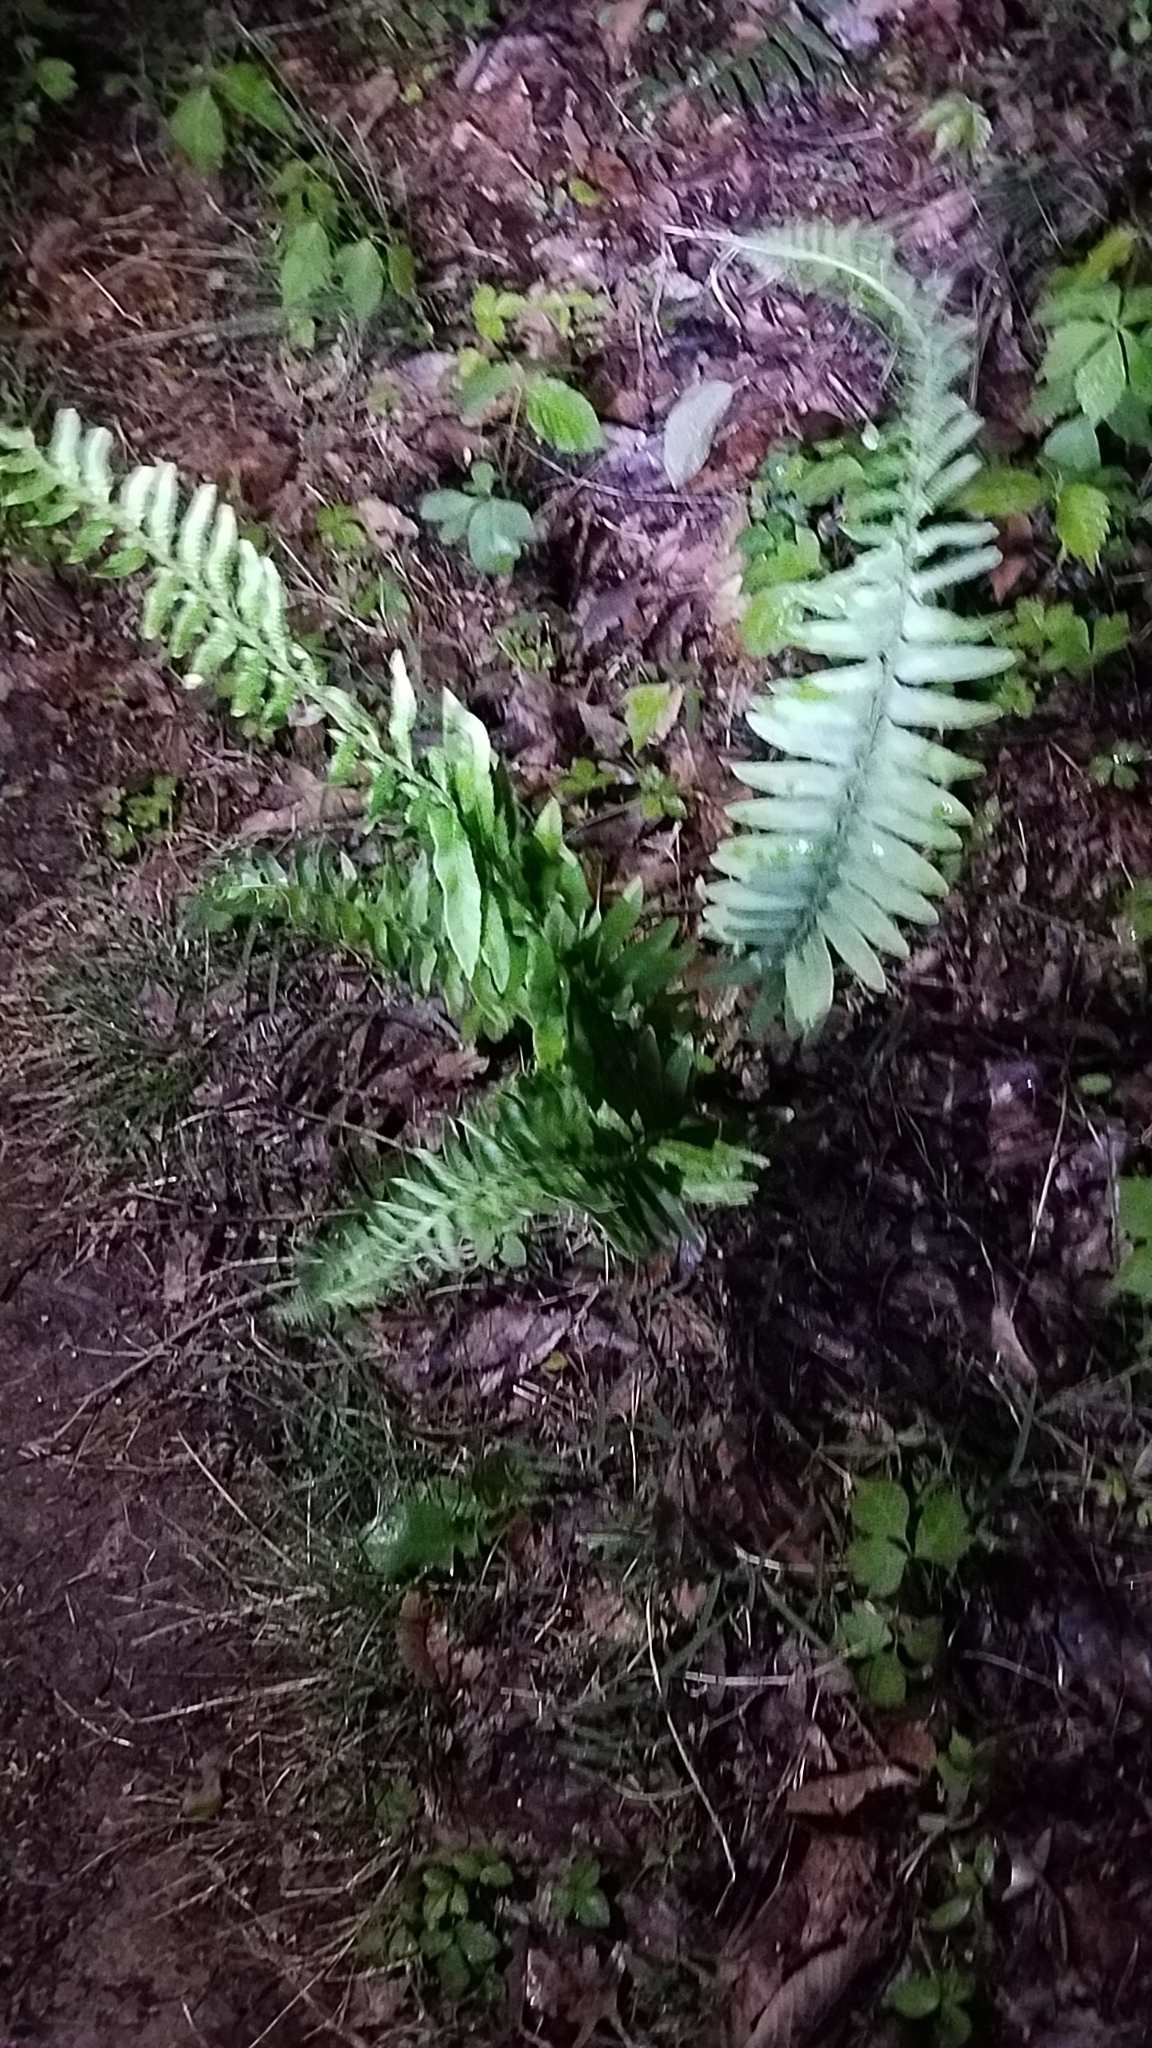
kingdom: Plantae
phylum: Tracheophyta
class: Polypodiopsida
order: Polypodiales
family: Dryopteridaceae
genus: Polystichum
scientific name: Polystichum acrostichoides
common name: Christmas fern
